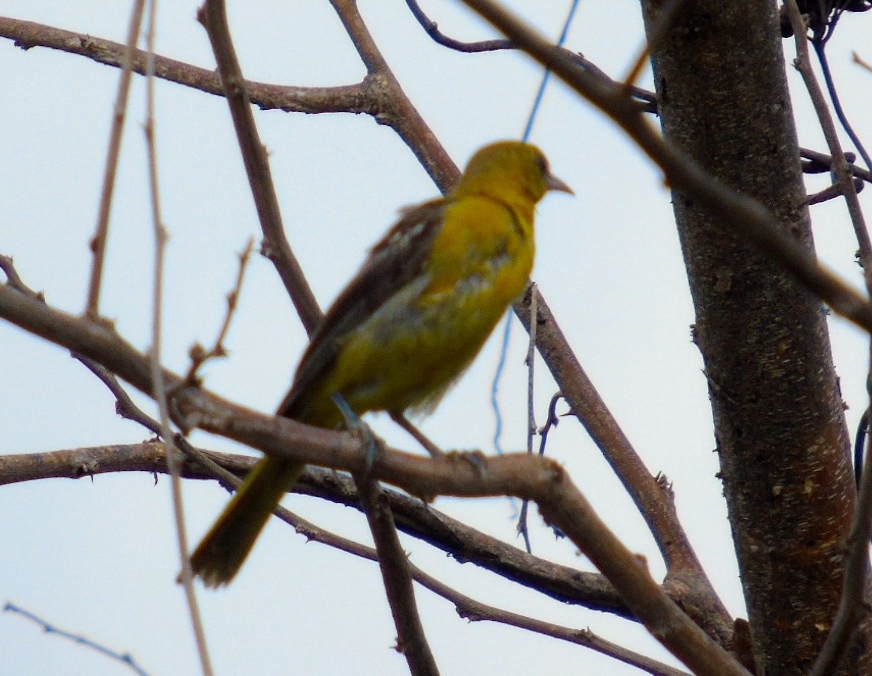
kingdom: Animalia
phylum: Chordata
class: Aves
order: Passeriformes
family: Icteridae
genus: Icterus
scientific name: Icterus
